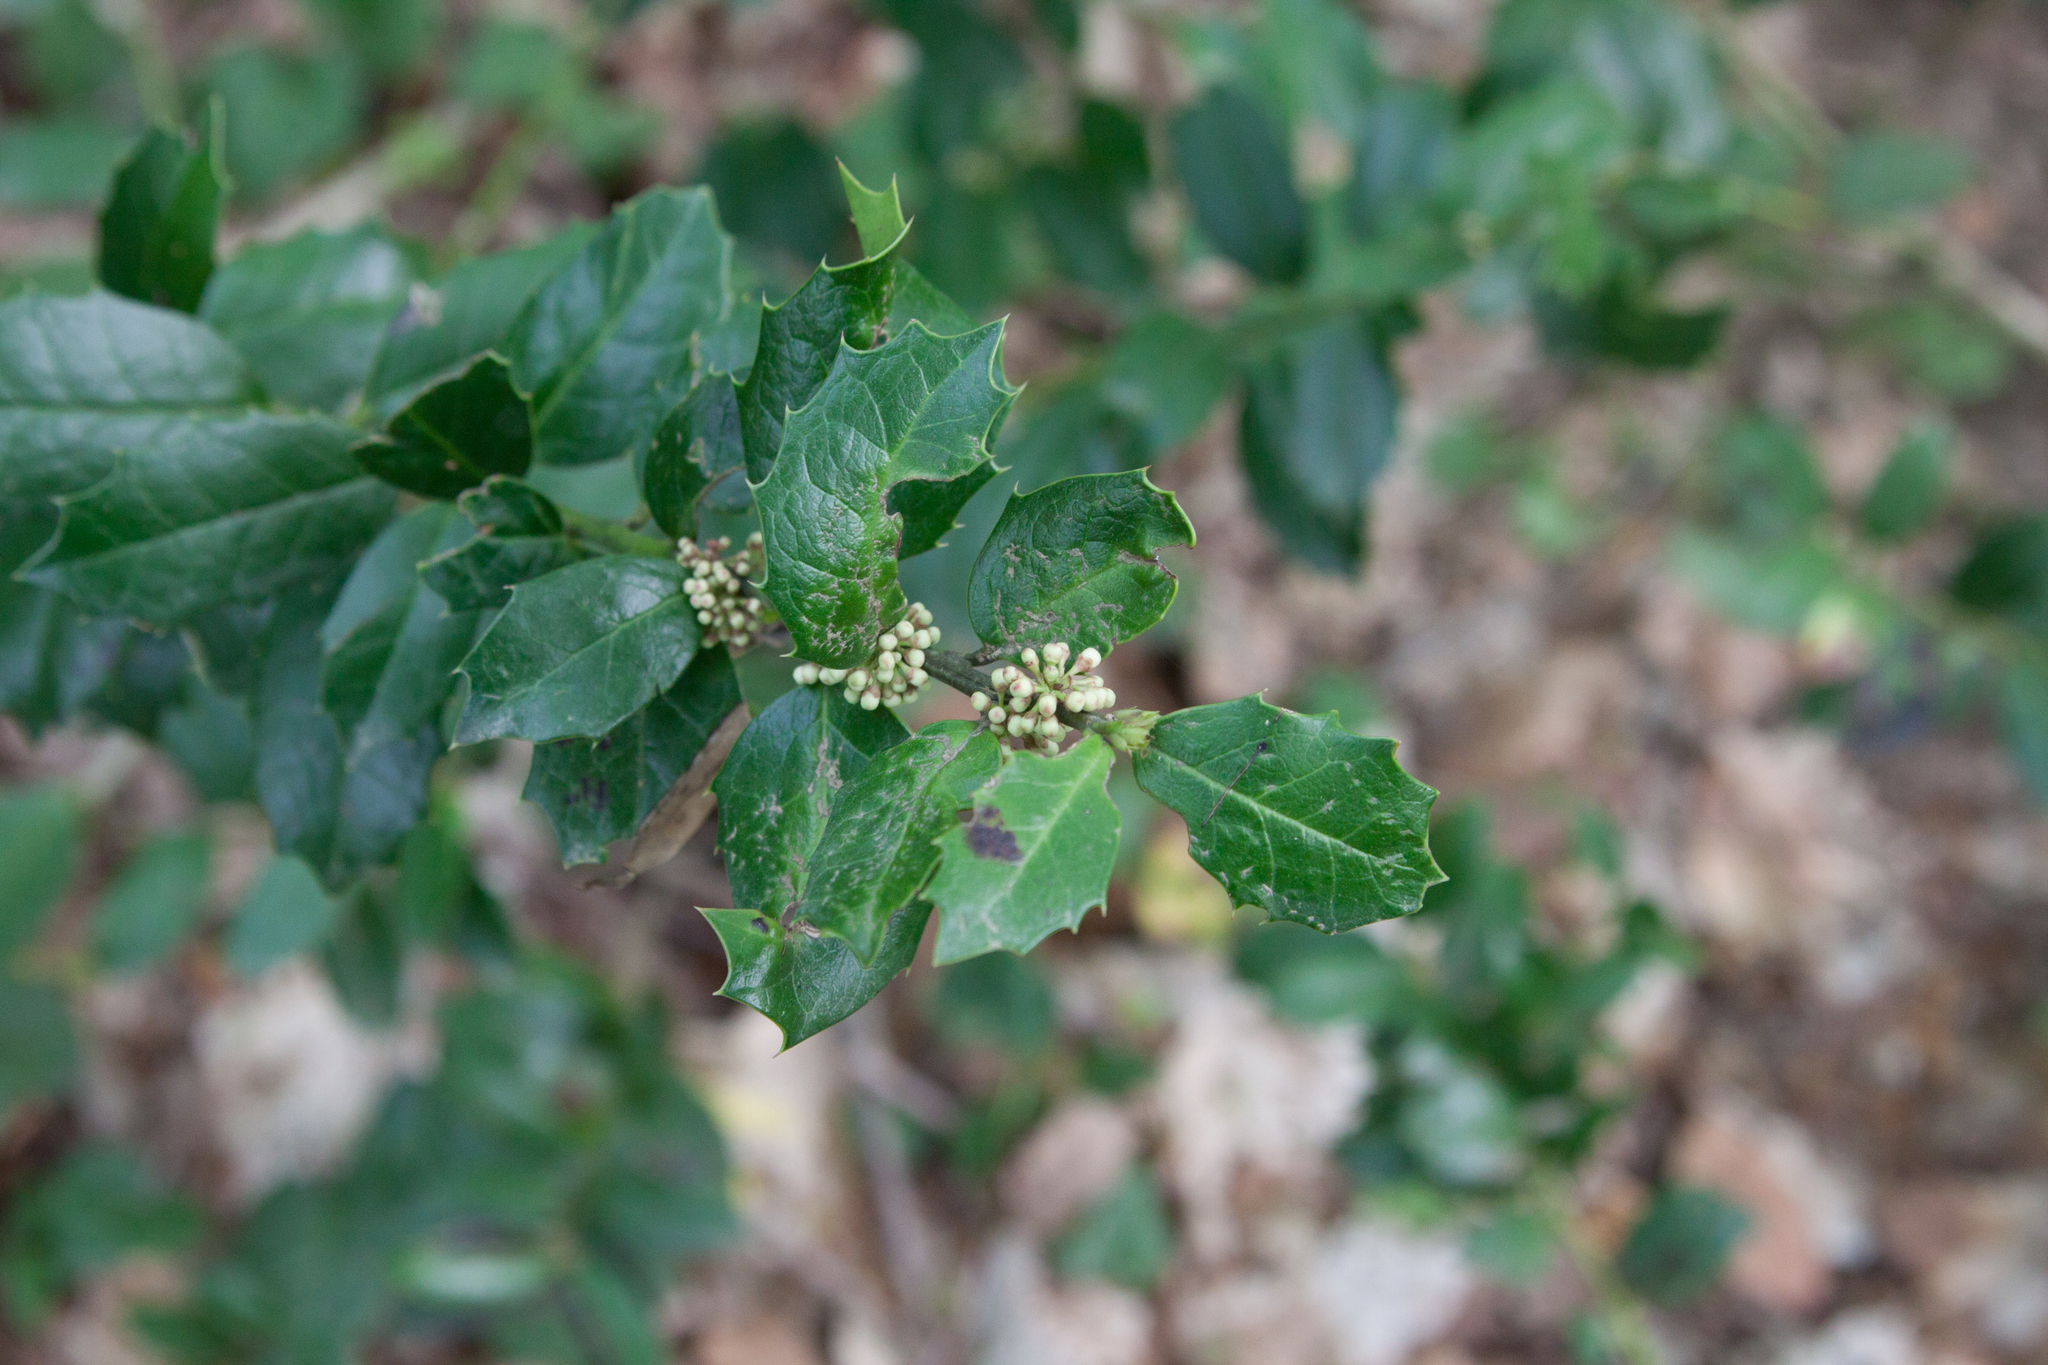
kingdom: Plantae
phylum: Tracheophyta
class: Magnoliopsida
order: Aquifoliales
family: Aquifoliaceae
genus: Ilex
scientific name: Ilex colchica
